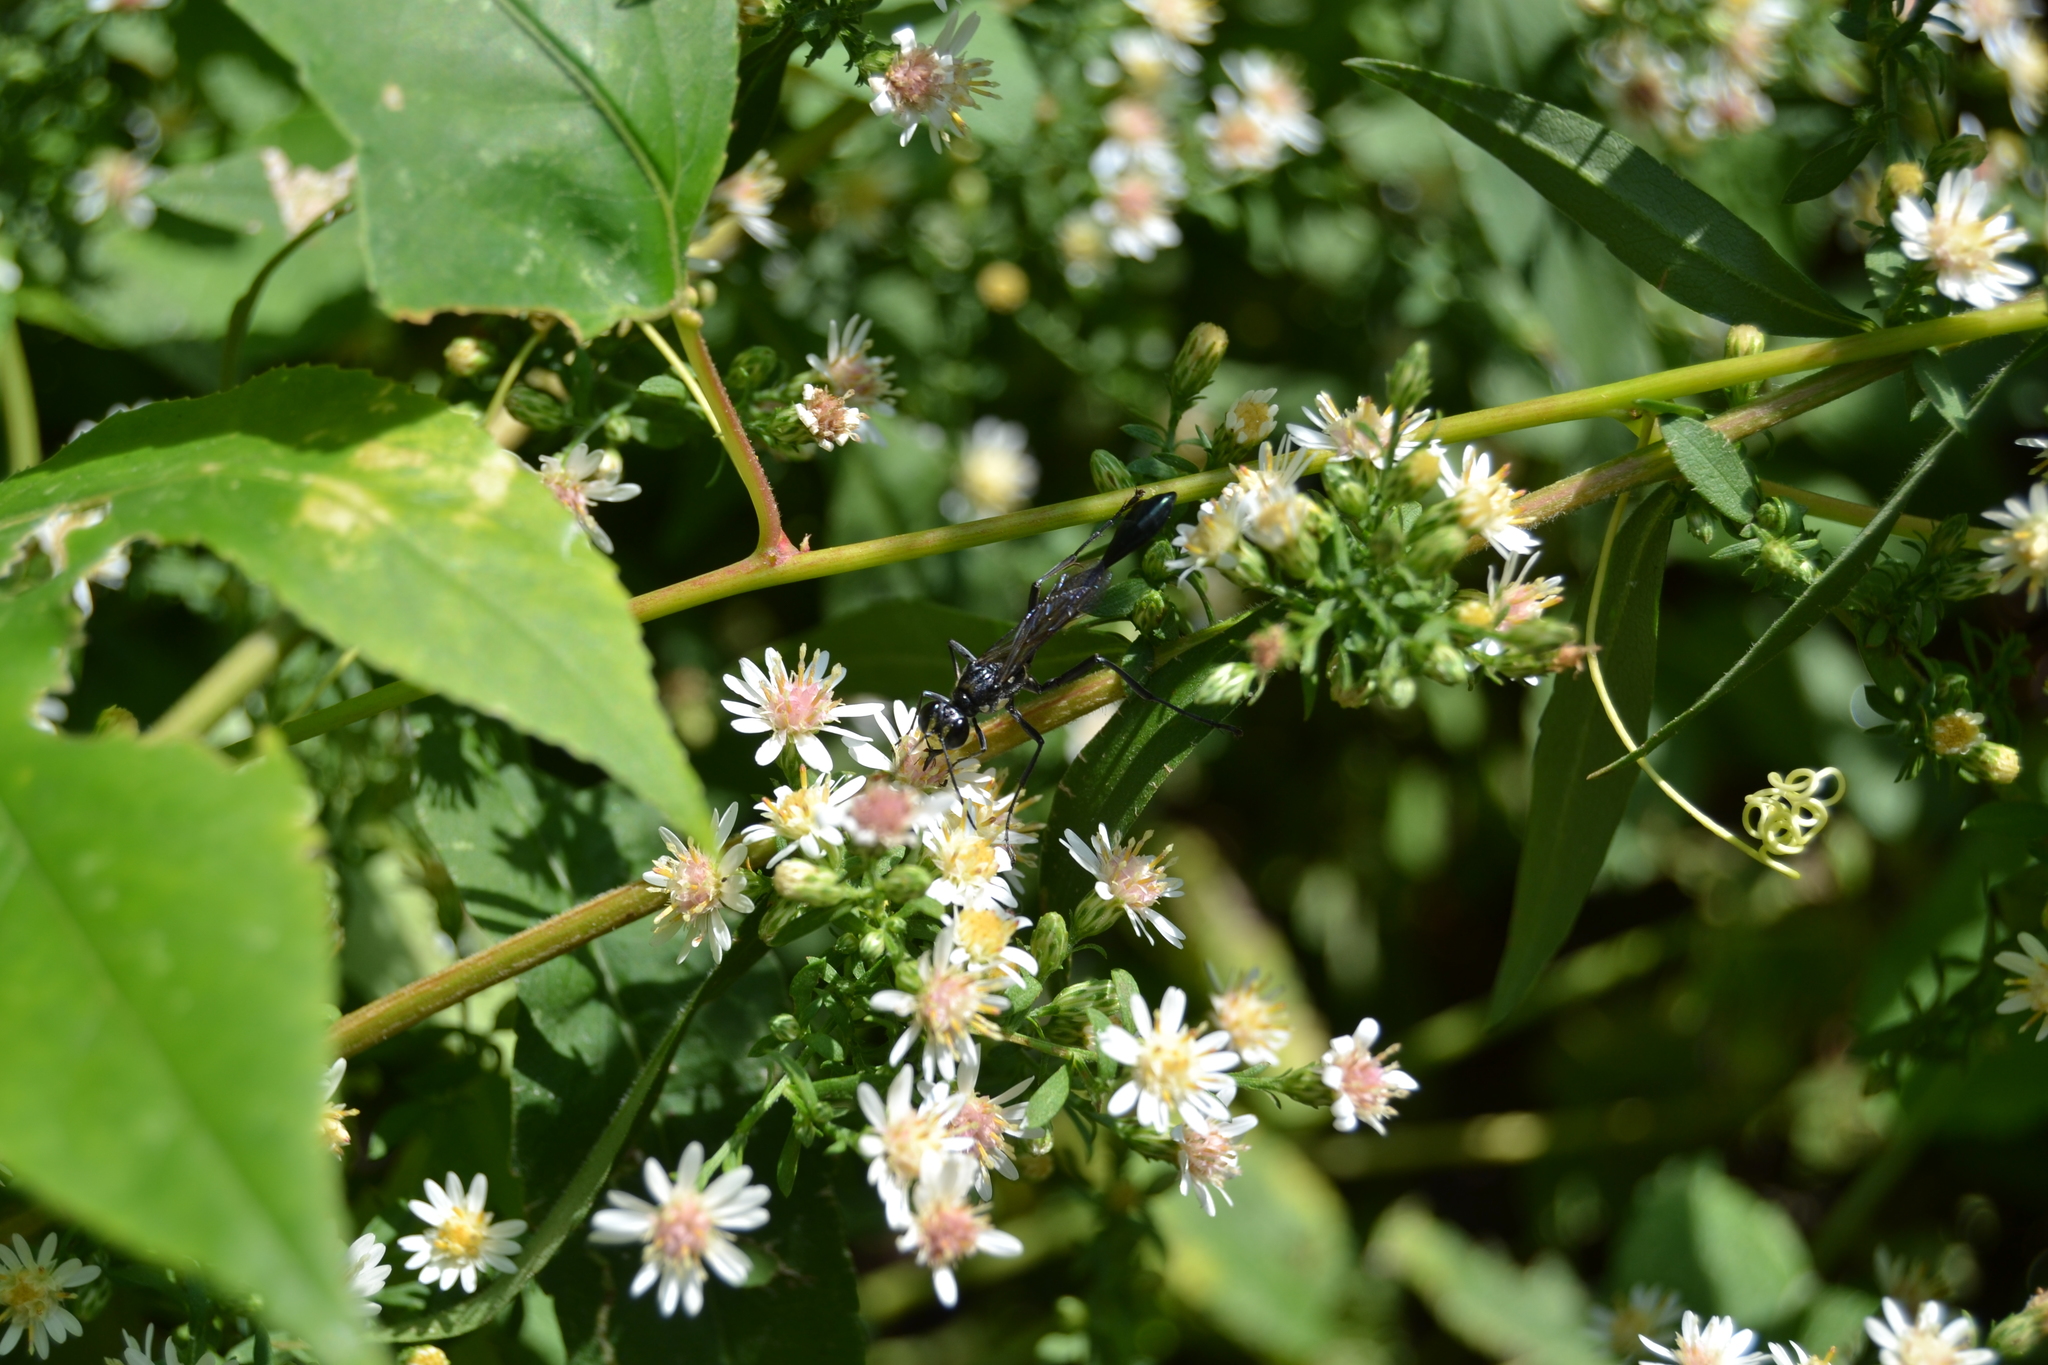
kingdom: Animalia
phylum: Arthropoda
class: Insecta
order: Hymenoptera
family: Sphecidae
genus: Eremnophila
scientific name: Eremnophila aureonotata
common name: Gold-marked thread-waisted wasp
